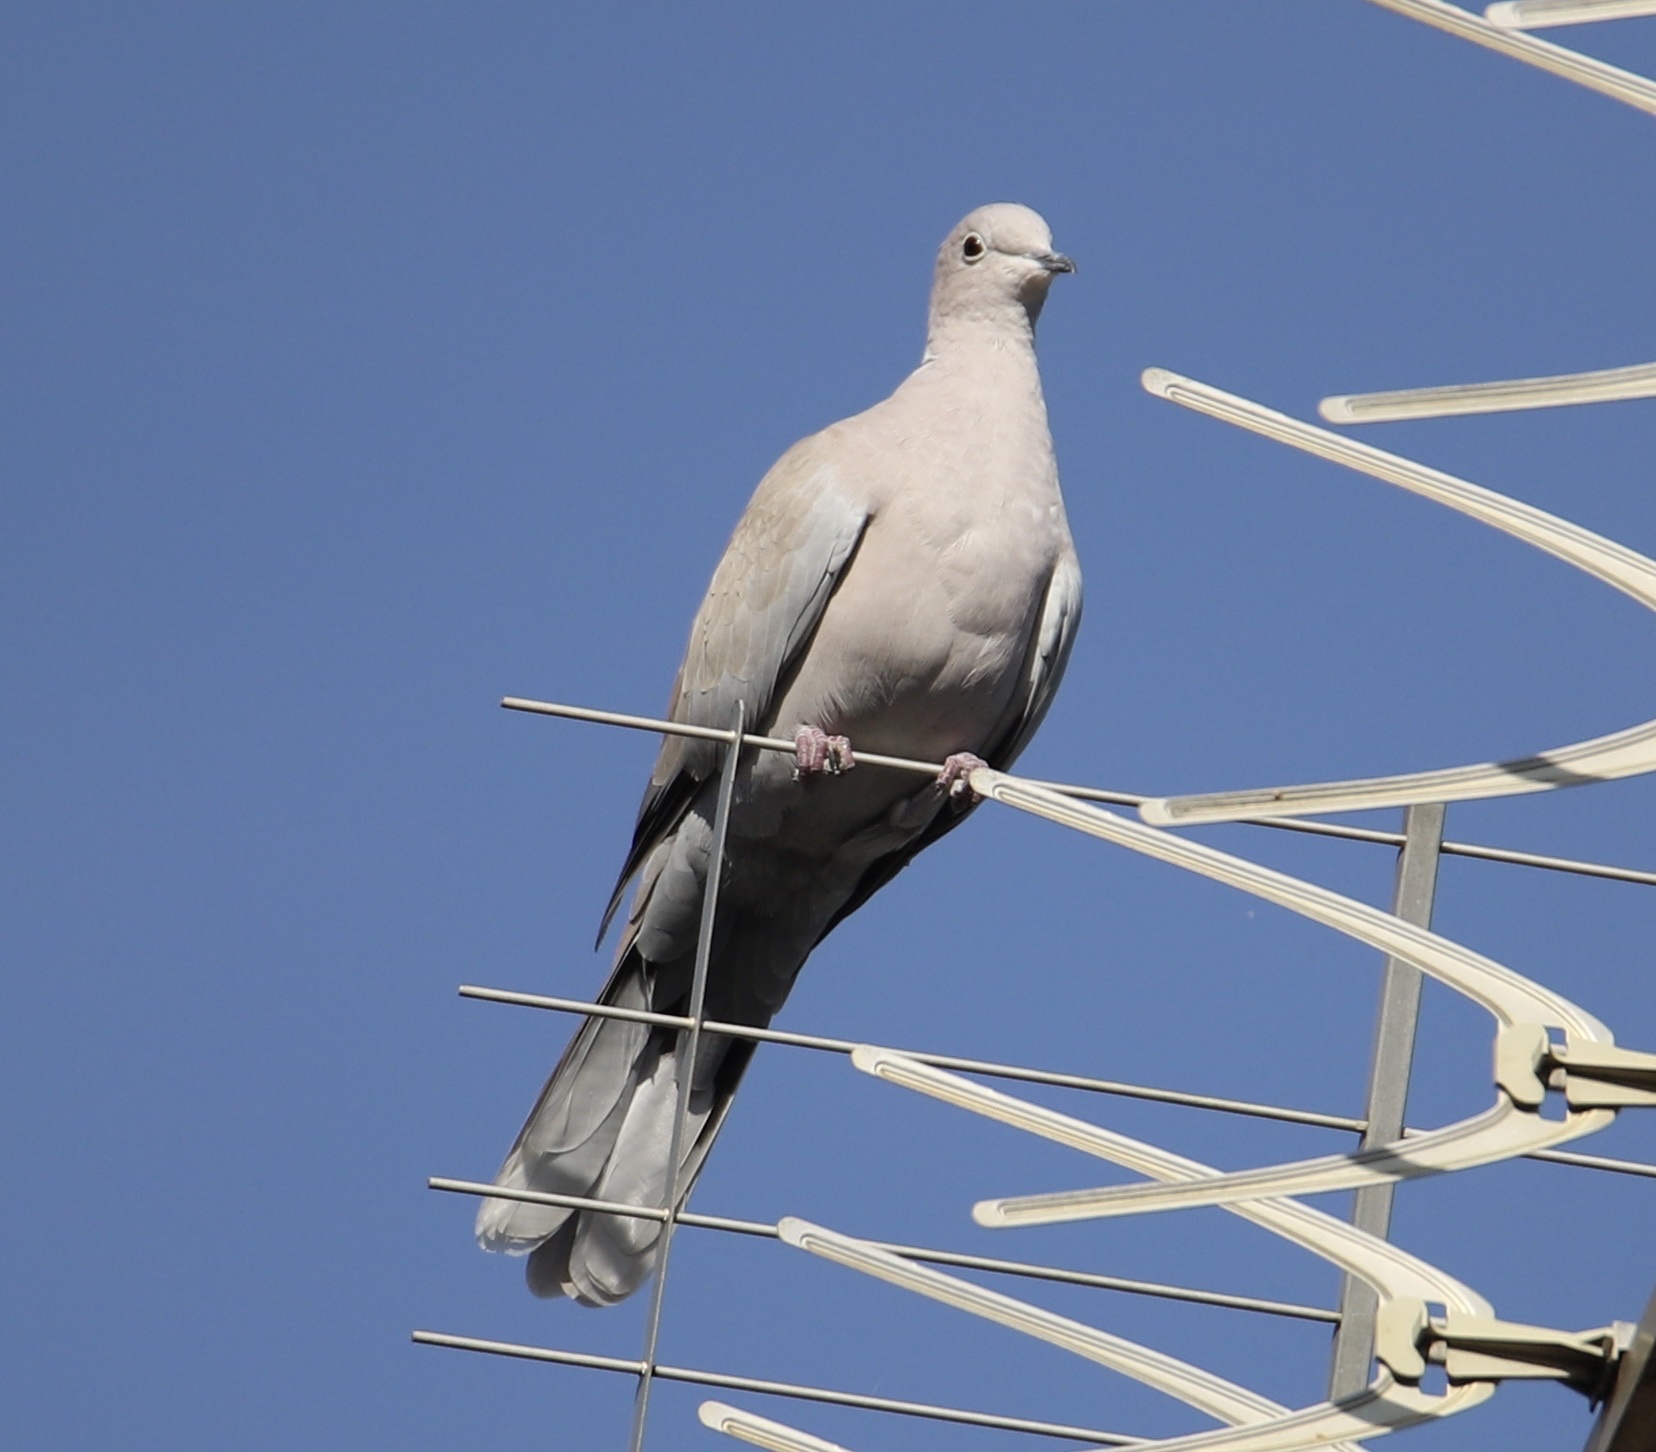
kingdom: Animalia
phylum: Chordata
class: Aves
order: Columbiformes
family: Columbidae
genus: Streptopelia
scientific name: Streptopelia decaocto
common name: Eurasian collared dove
